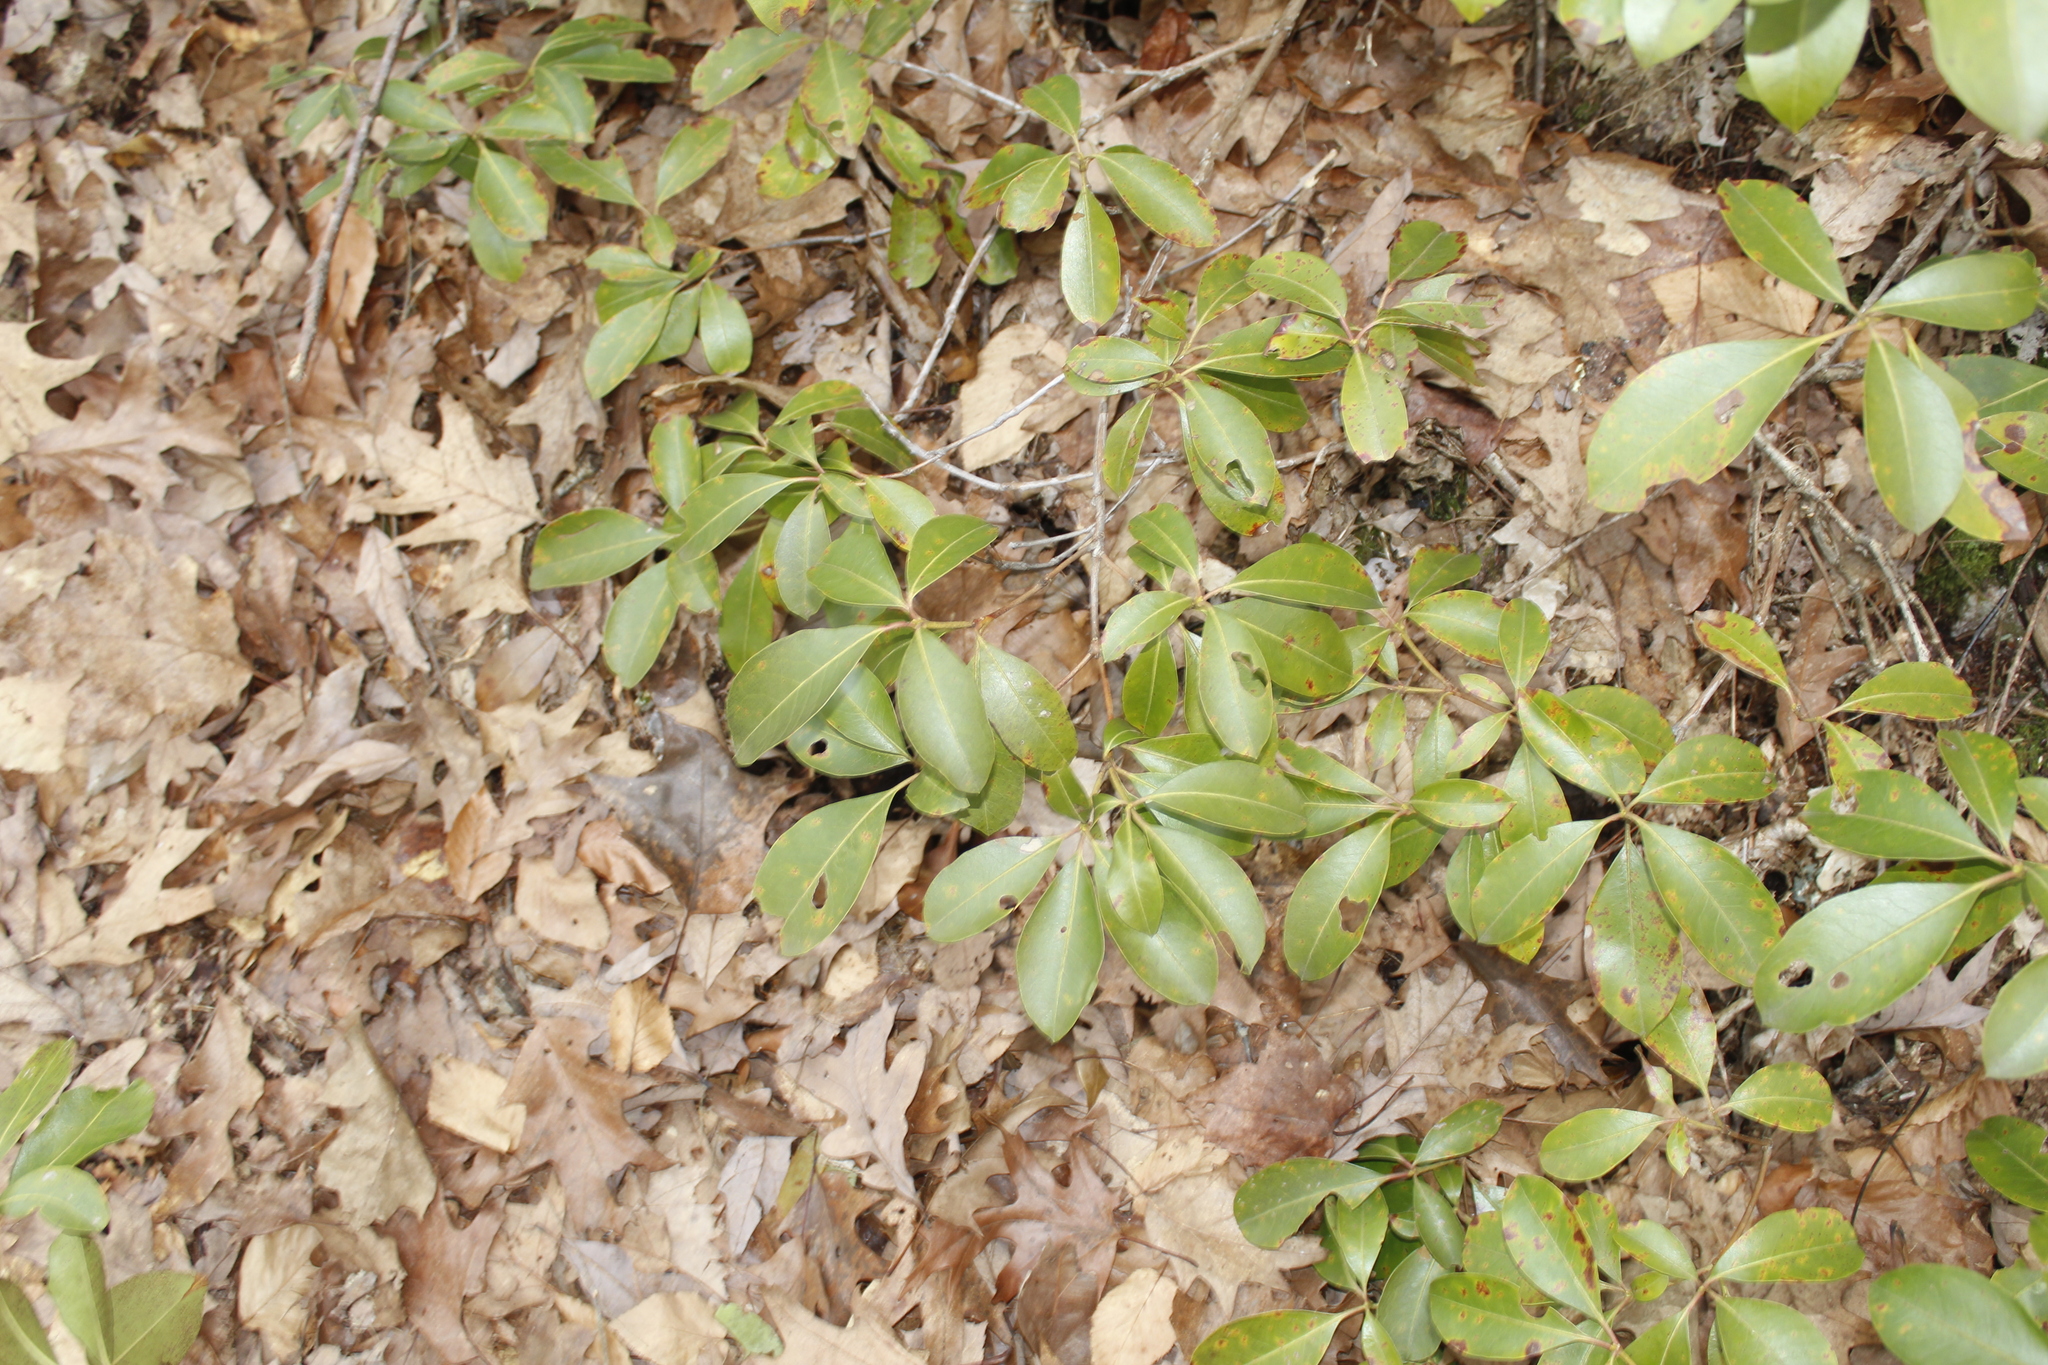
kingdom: Plantae
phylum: Tracheophyta
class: Magnoliopsida
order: Ericales
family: Ericaceae
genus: Kalmia
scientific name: Kalmia latifolia
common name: Mountain-laurel
